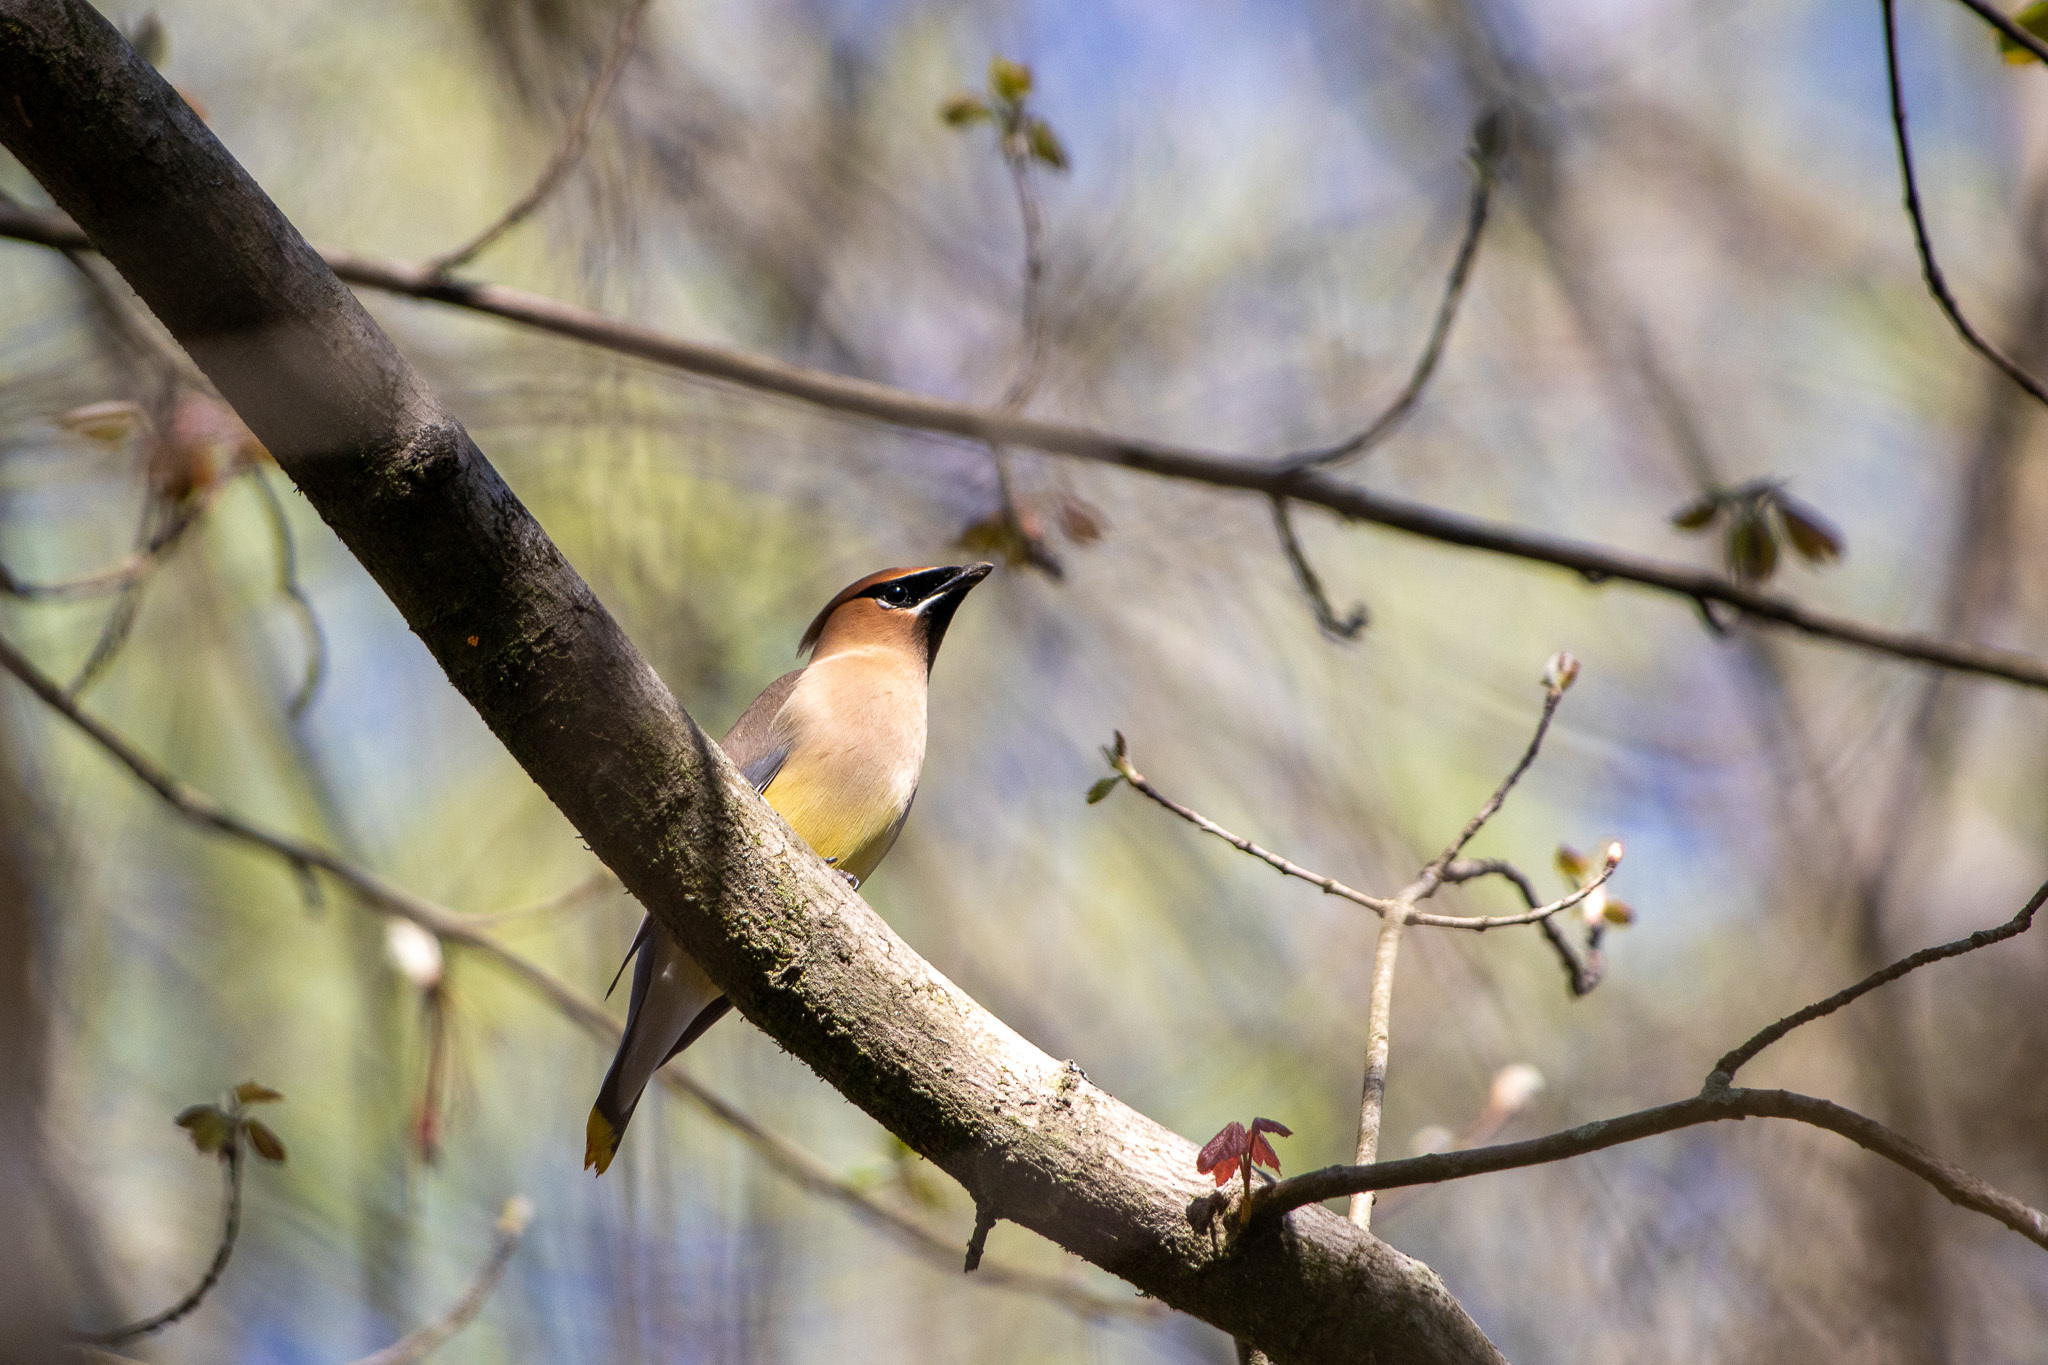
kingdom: Animalia
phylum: Chordata
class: Aves
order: Passeriformes
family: Bombycillidae
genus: Bombycilla
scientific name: Bombycilla cedrorum
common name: Cedar waxwing
